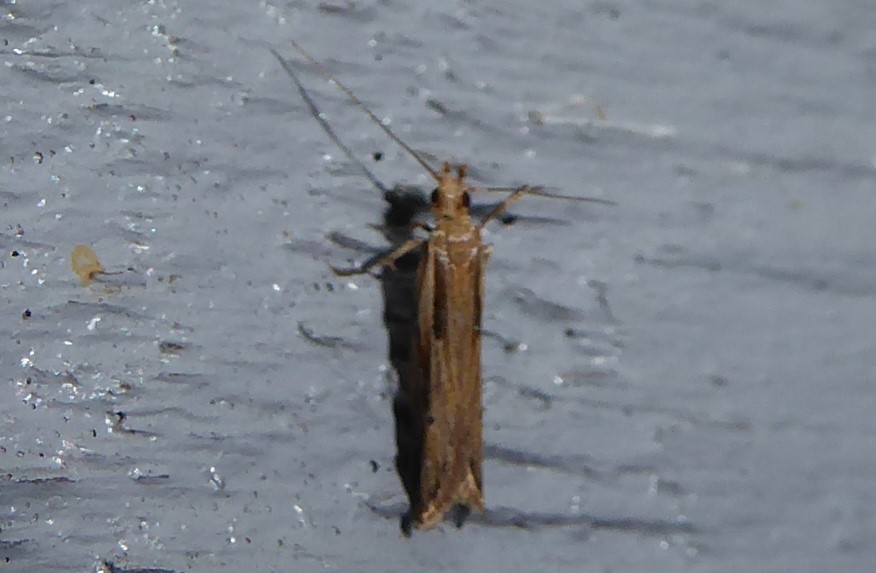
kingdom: Animalia
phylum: Arthropoda
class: Insecta
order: Lepidoptera
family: Depressariidae
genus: Eutorna
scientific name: Eutorna symmorpha
